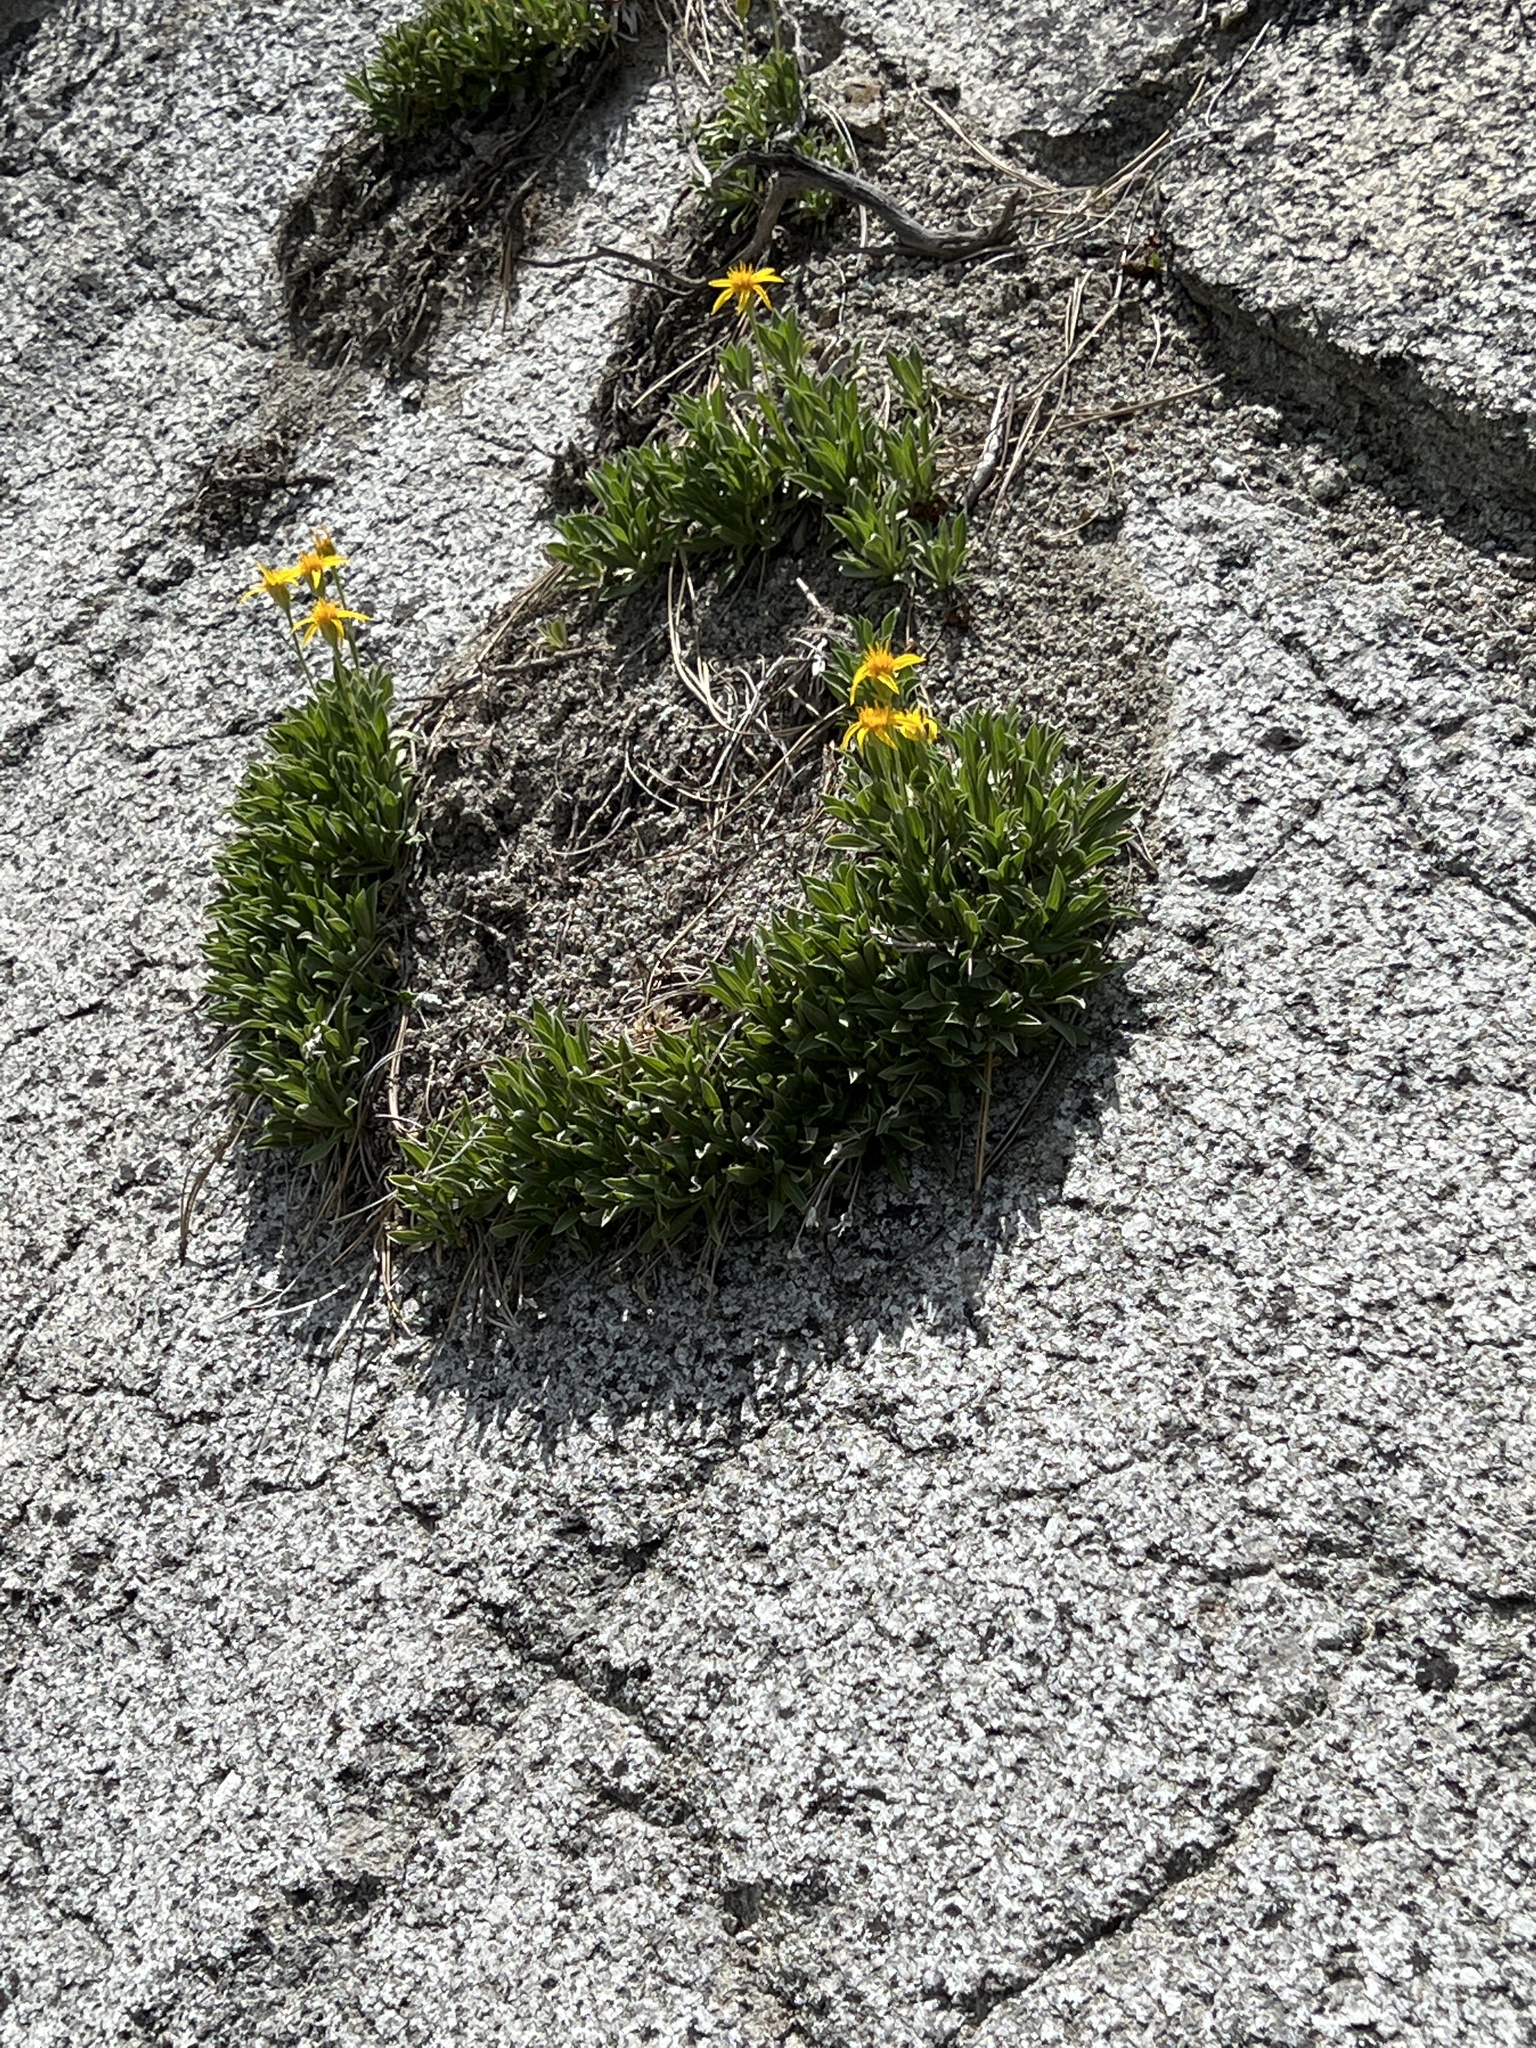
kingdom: Plantae
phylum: Tracheophyta
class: Magnoliopsida
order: Asterales
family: Asteraceae
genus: Stenotus
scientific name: Stenotus acaulis
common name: Stemless goldenweed
